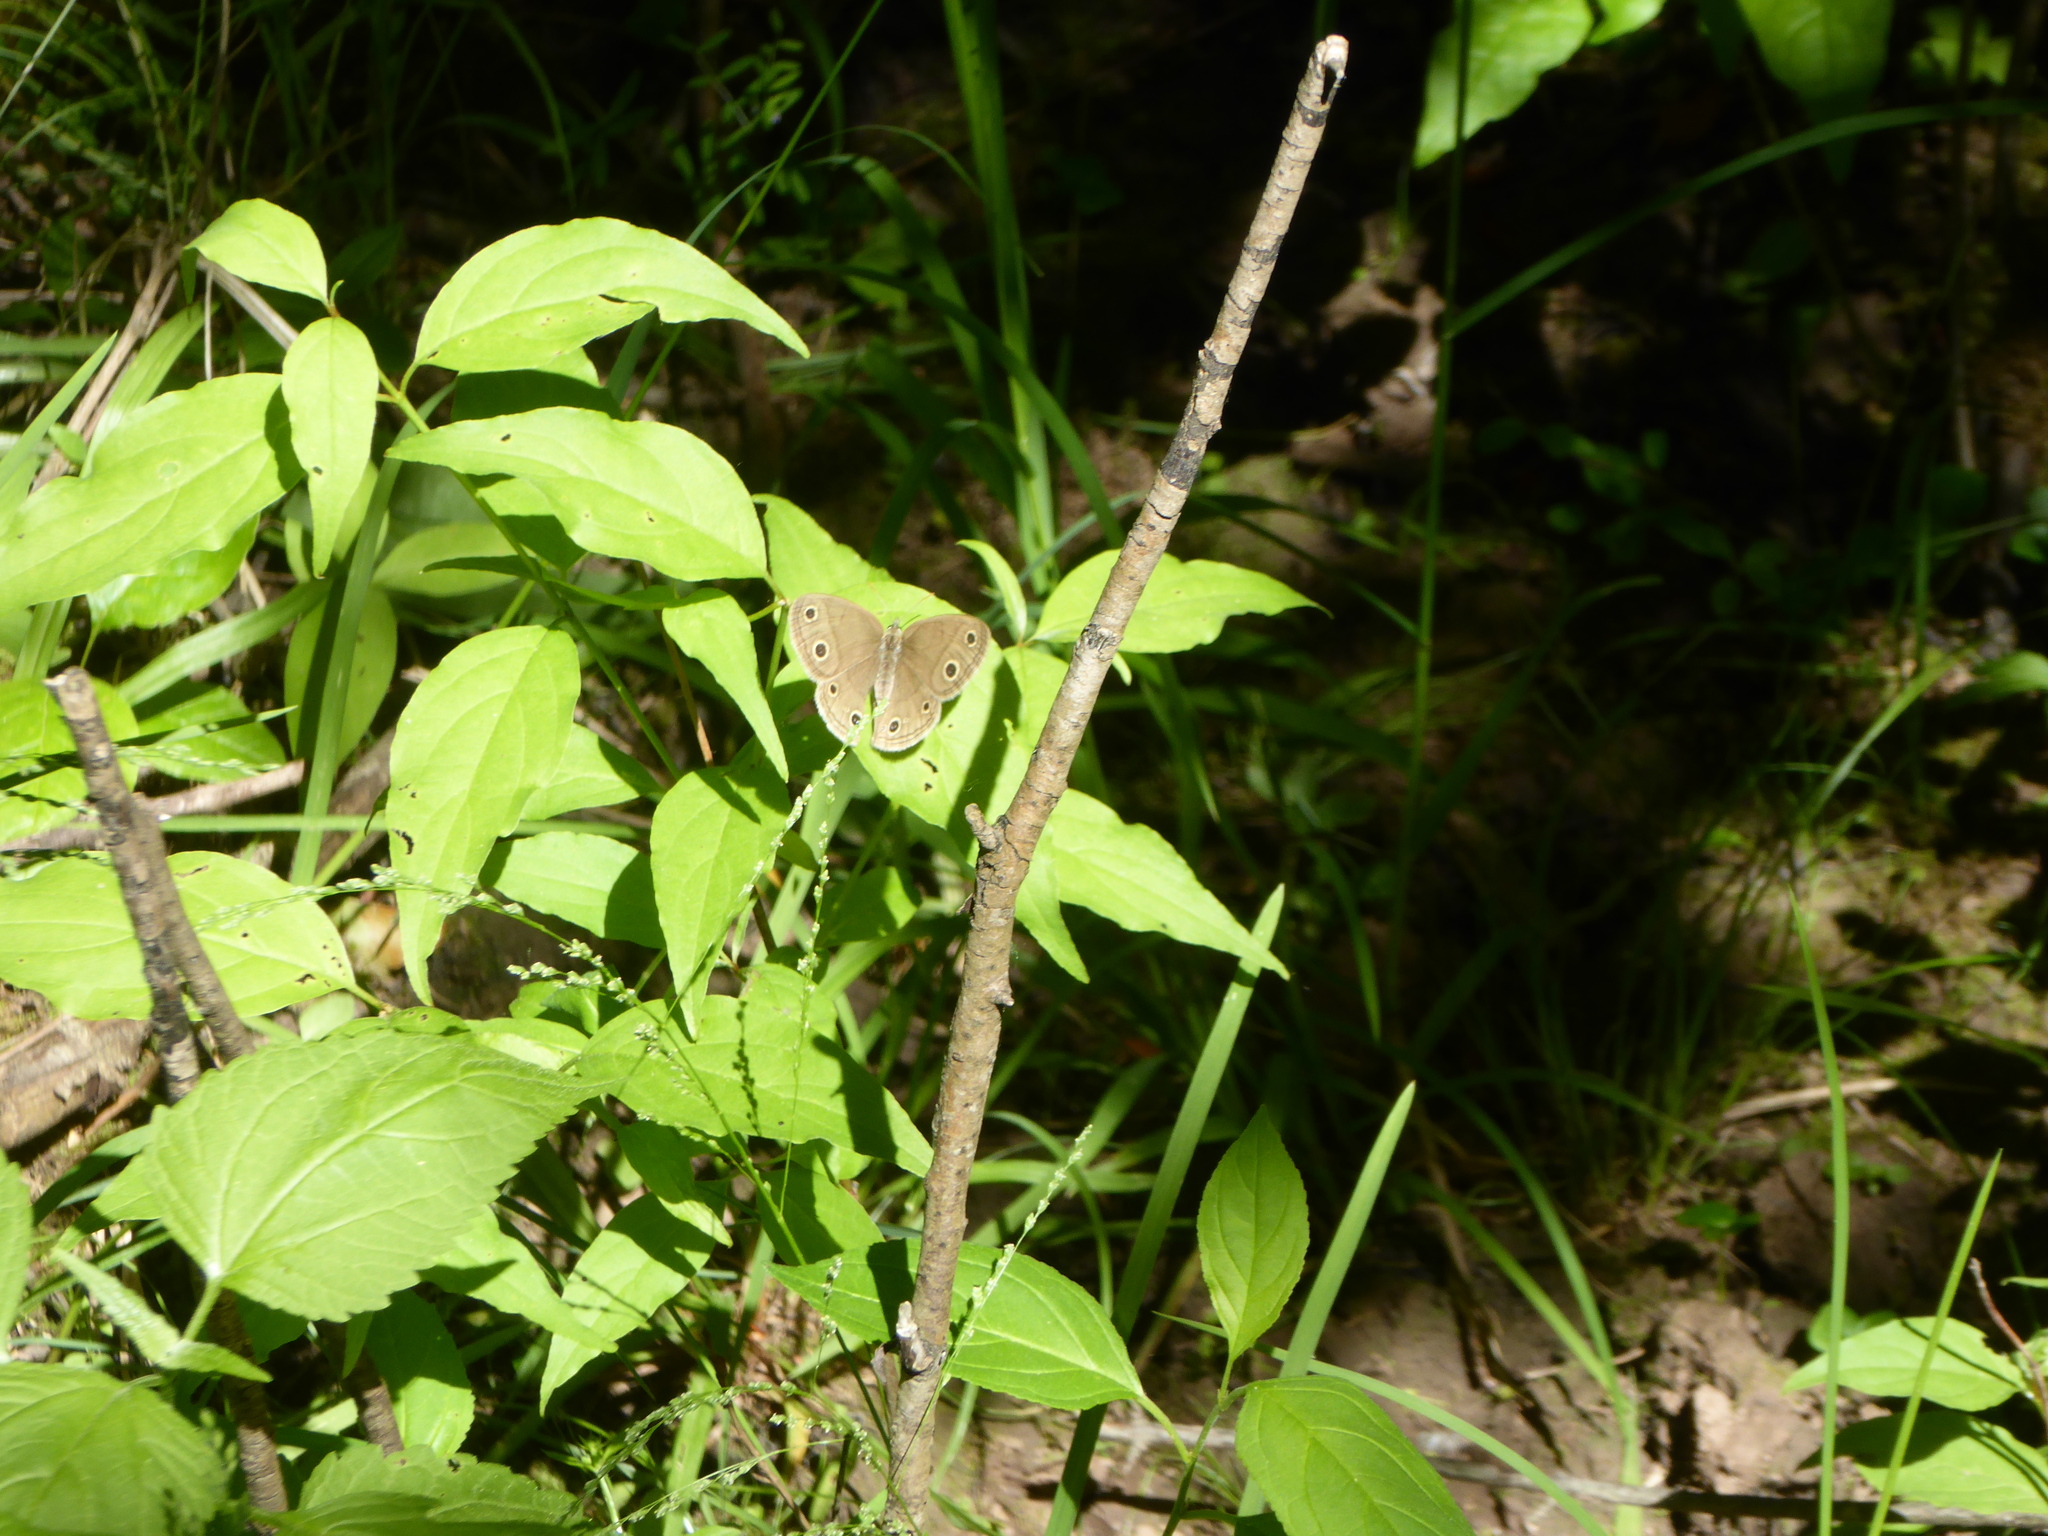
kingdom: Animalia
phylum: Arthropoda
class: Insecta
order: Lepidoptera
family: Nymphalidae
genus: Euptychia
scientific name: Euptychia cymela
